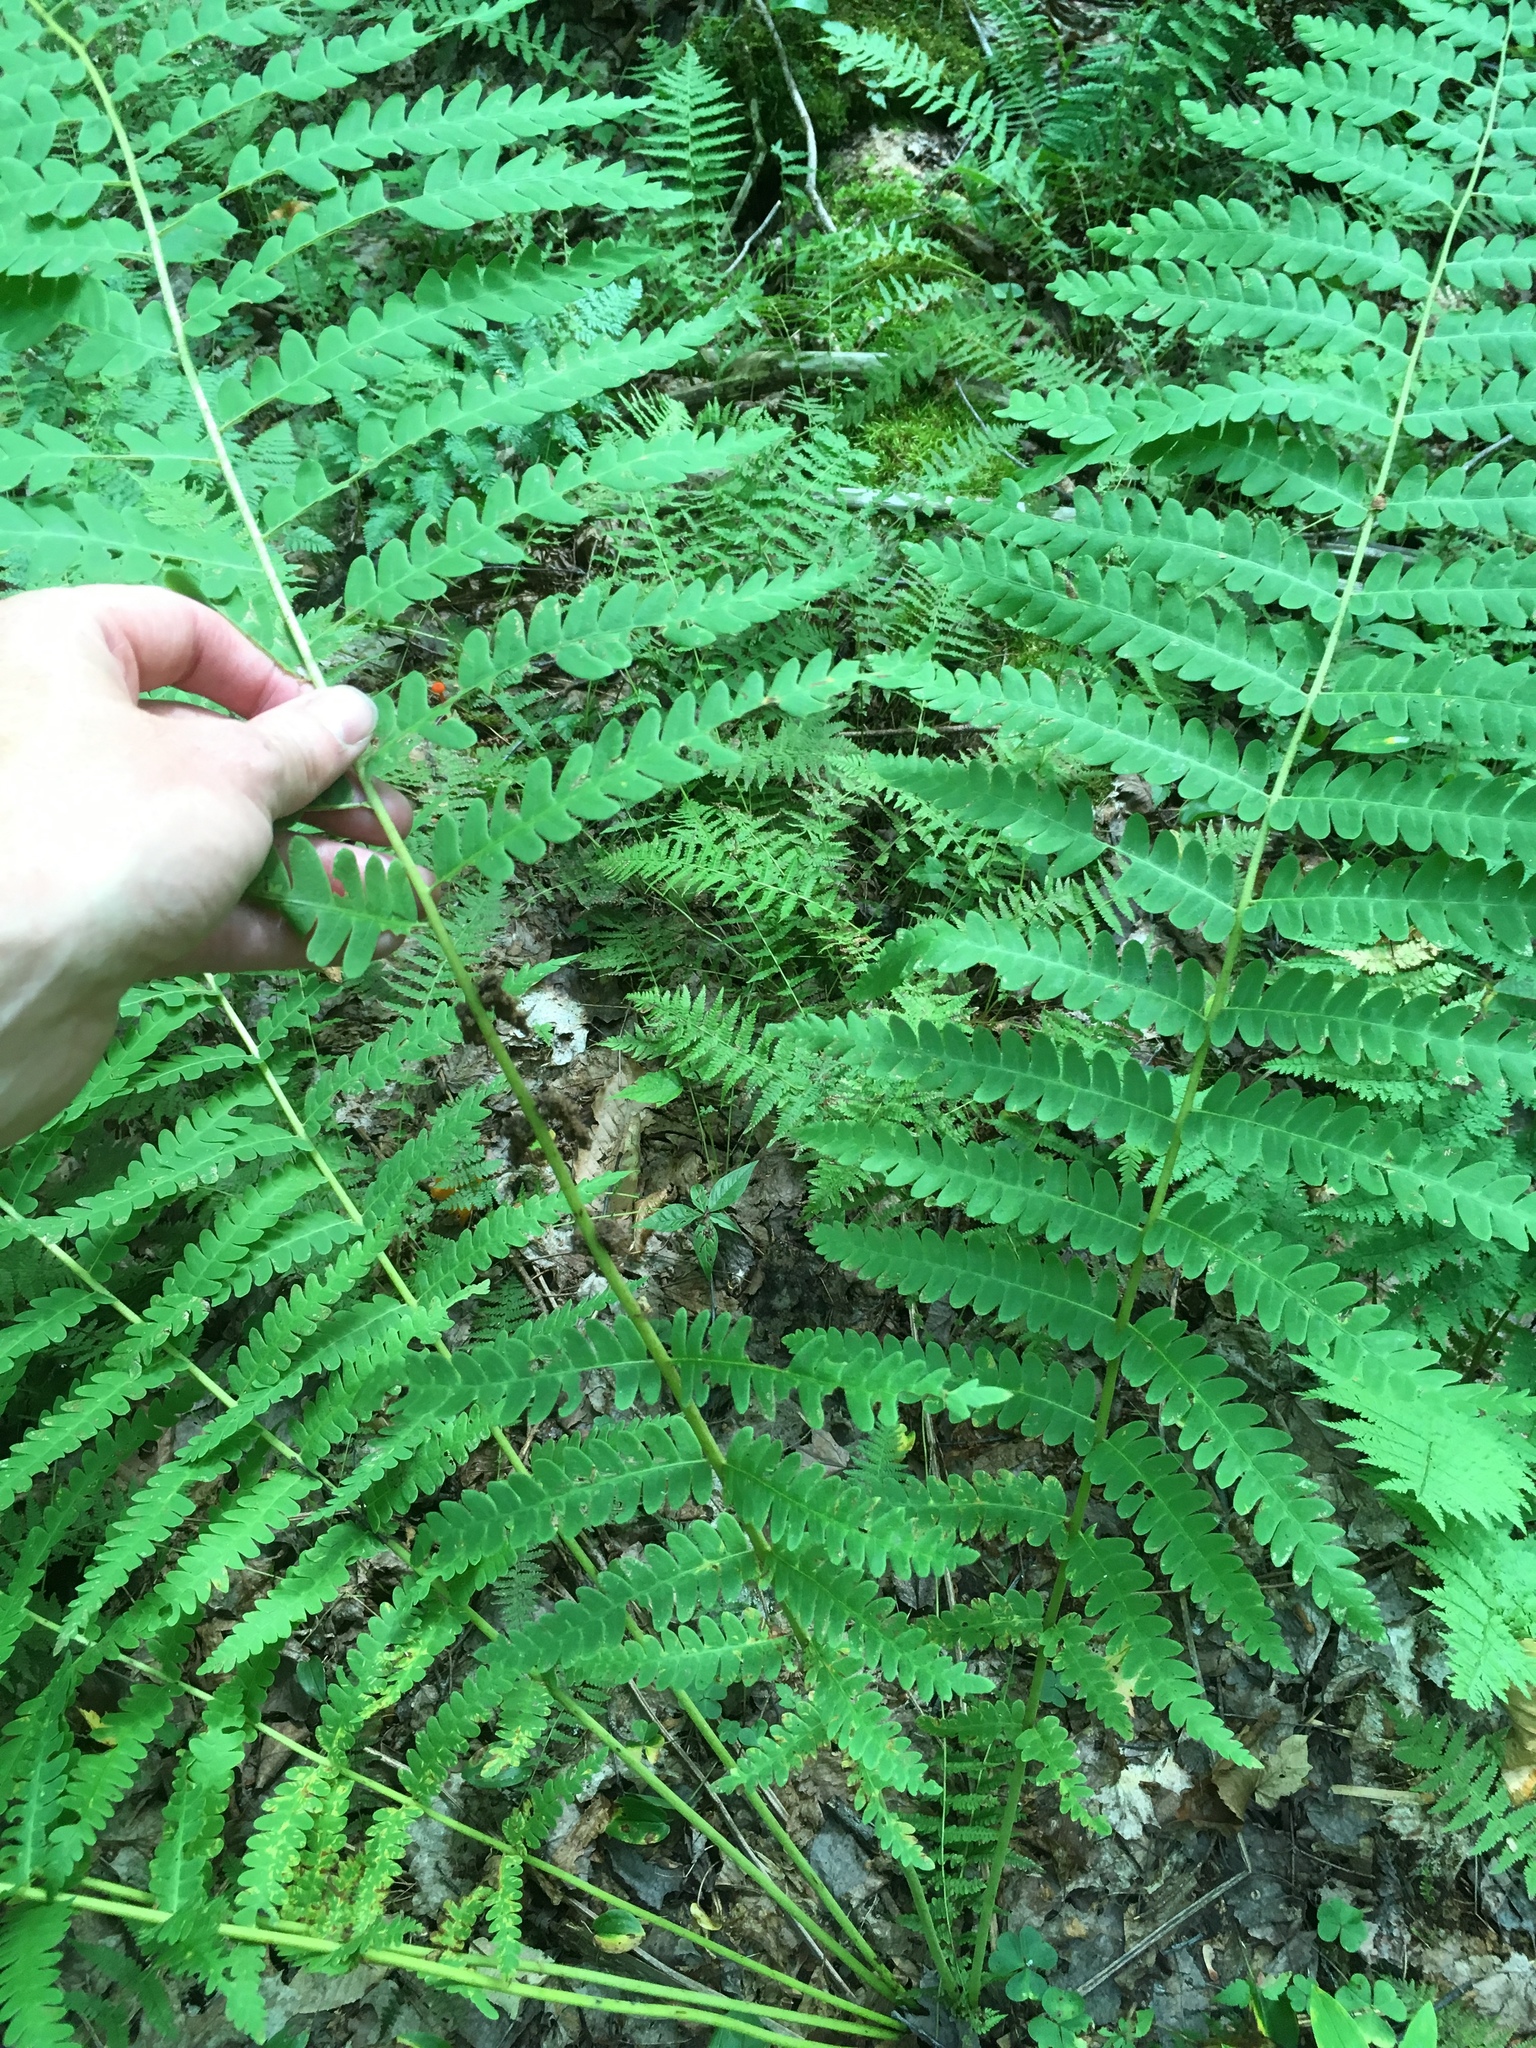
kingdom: Plantae
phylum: Tracheophyta
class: Polypodiopsida
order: Osmundales
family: Osmundaceae
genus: Claytosmunda
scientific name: Claytosmunda claytoniana
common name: Clayton's fern
